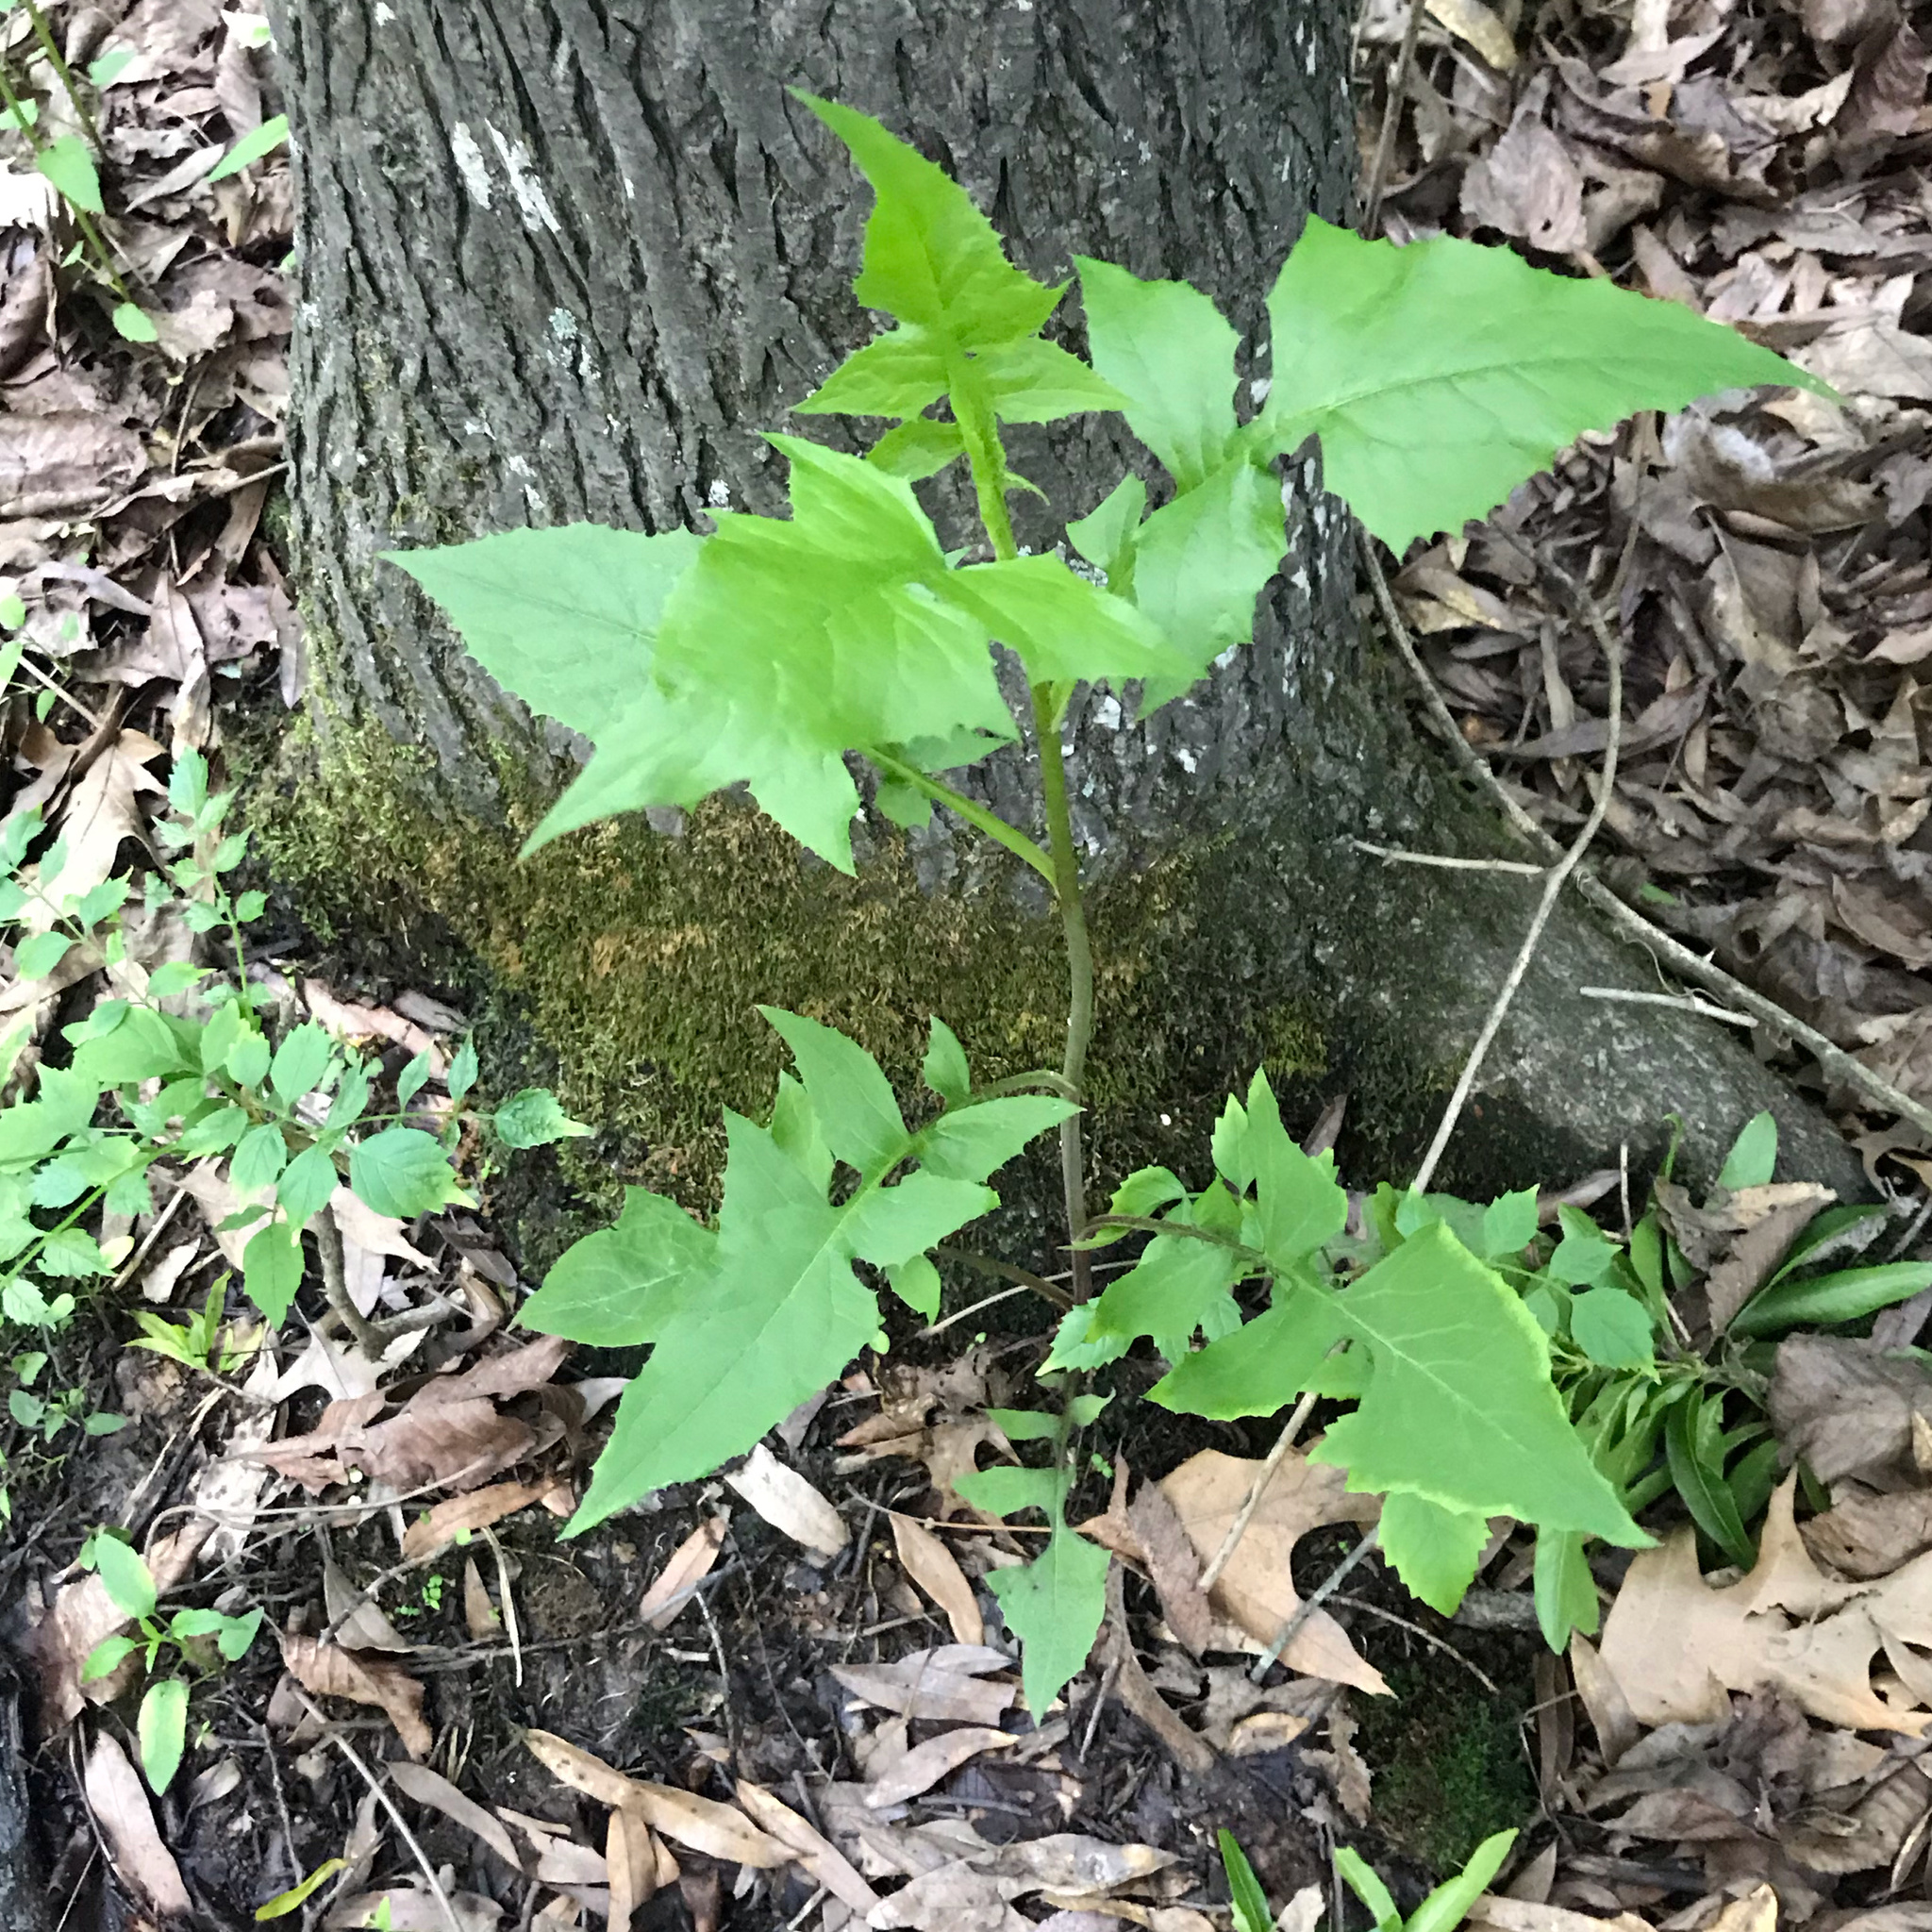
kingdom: Plantae
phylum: Tracheophyta
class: Magnoliopsida
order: Asterales
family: Asteraceae
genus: Lactuca
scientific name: Lactuca floridana
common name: Woodland lettuce
